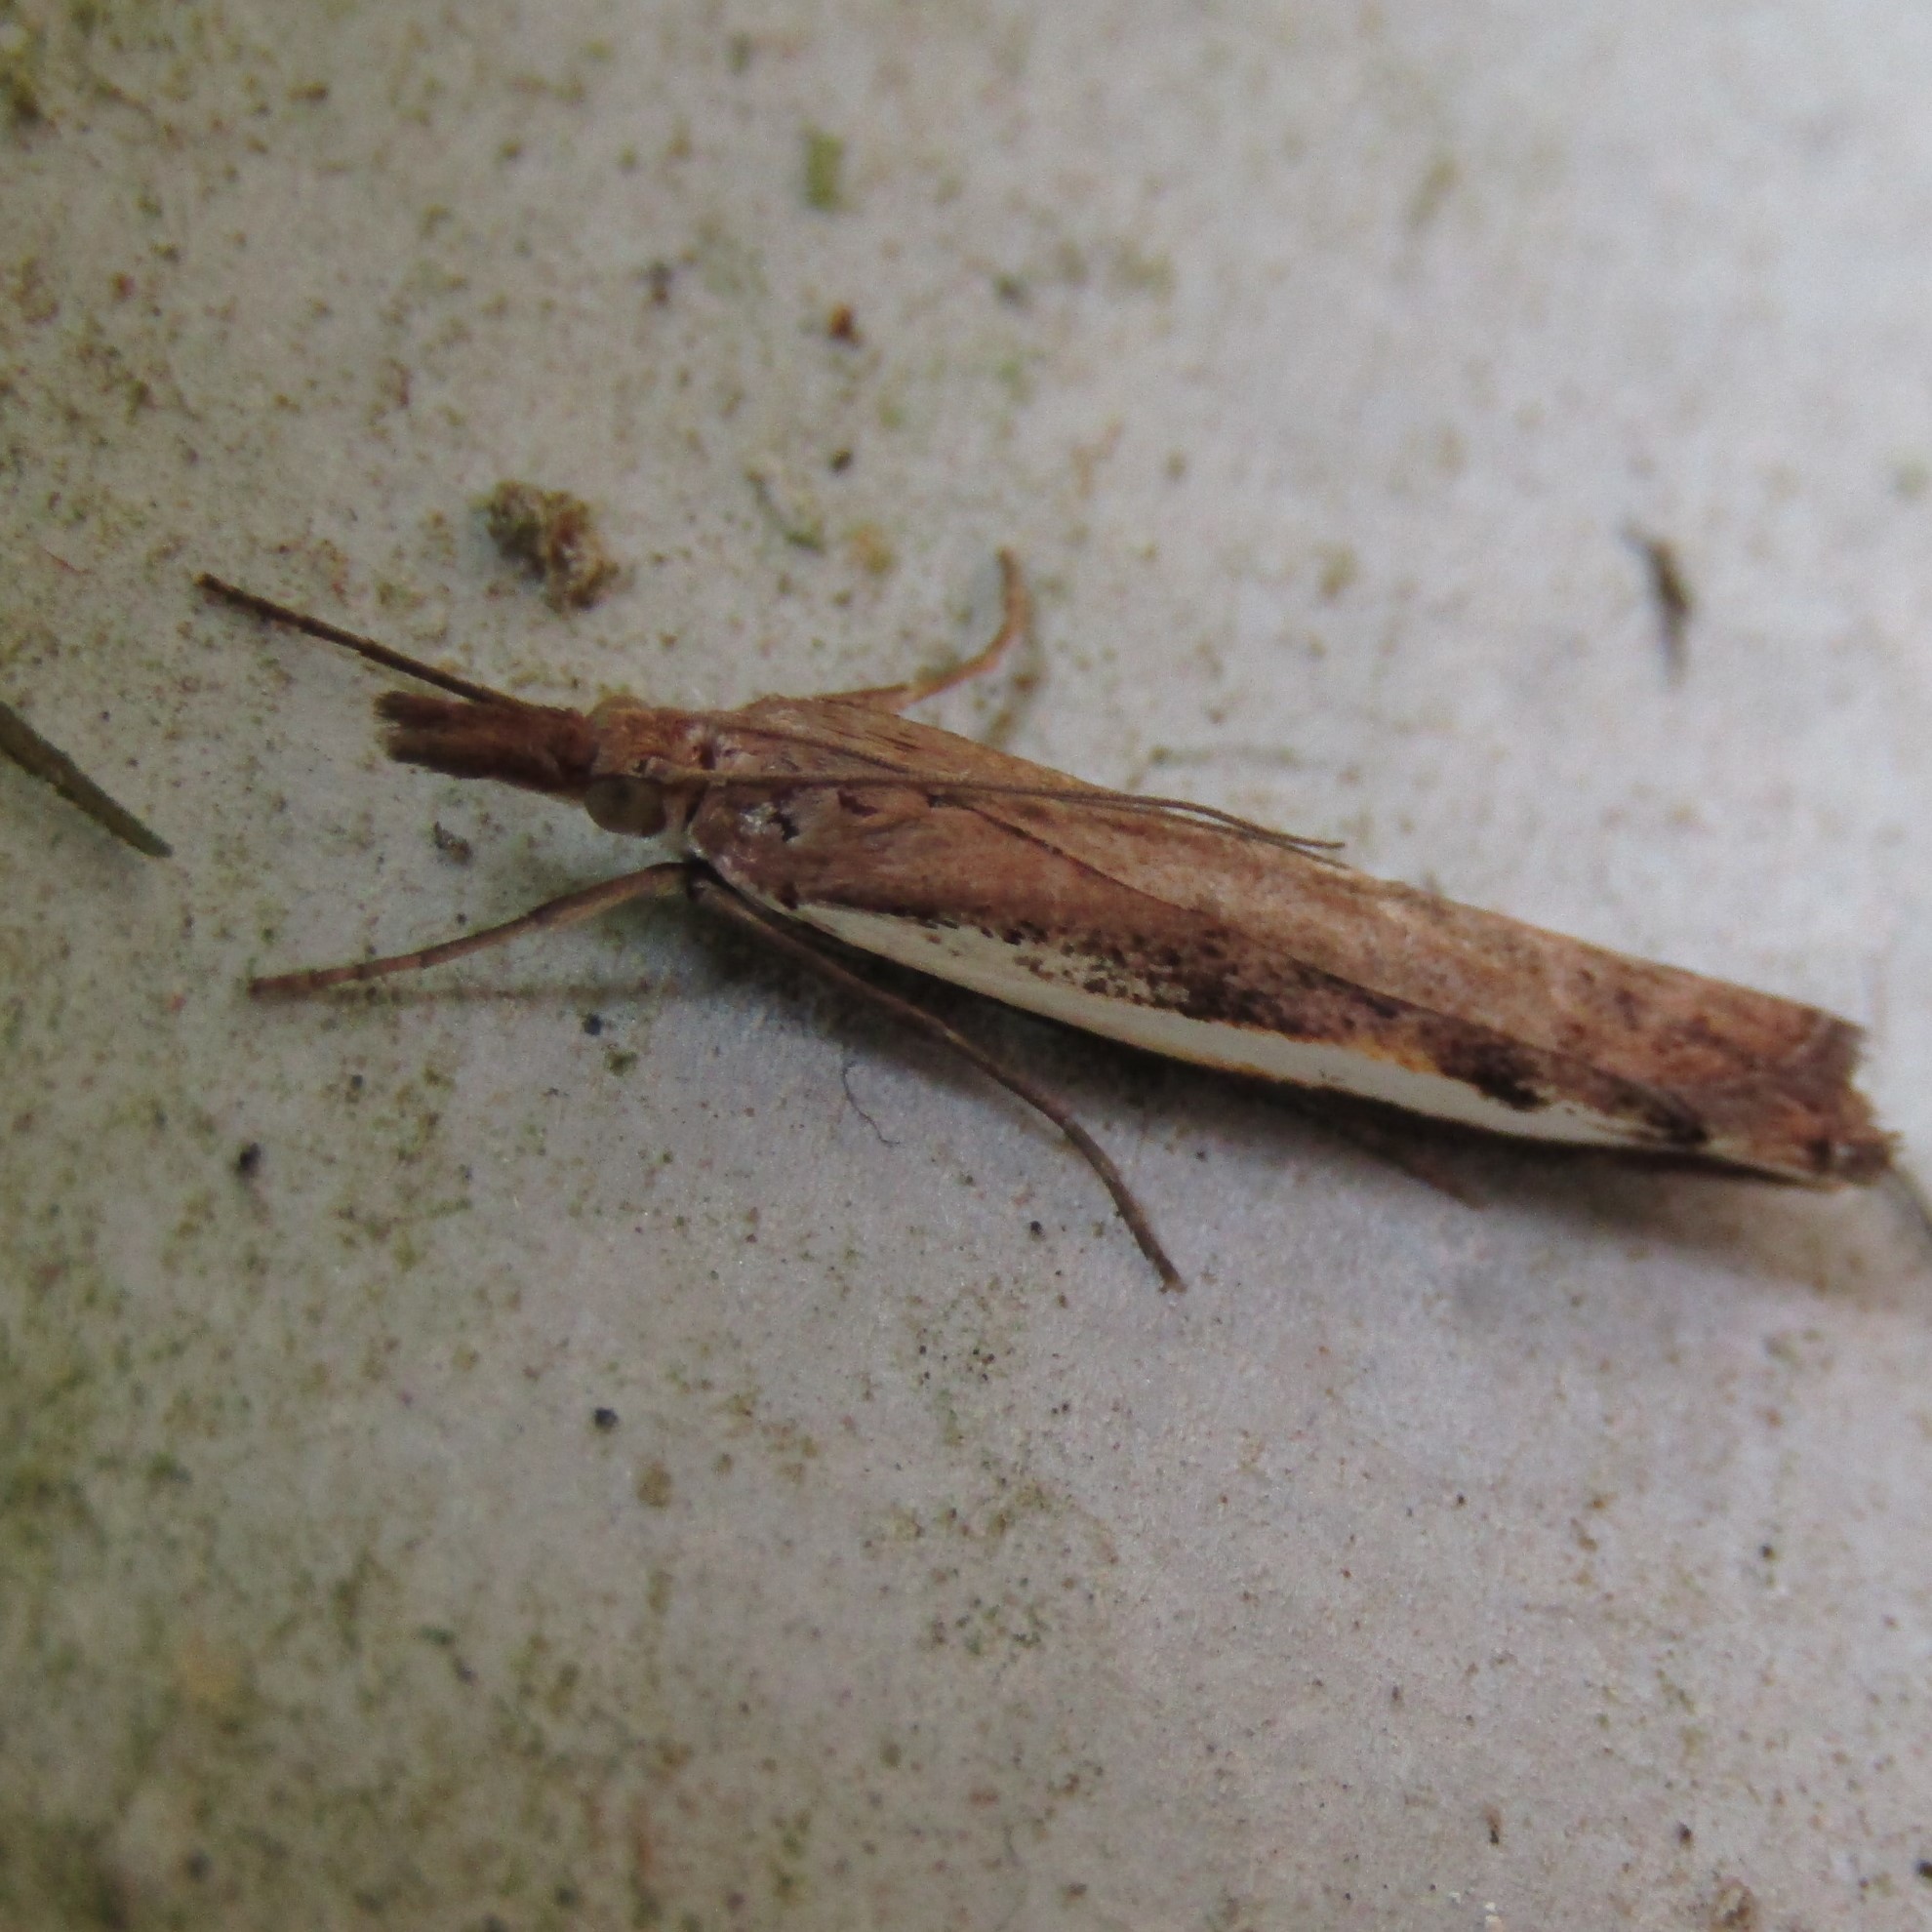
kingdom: Animalia
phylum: Arthropoda
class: Insecta
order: Lepidoptera
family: Crambidae
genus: Orocrambus
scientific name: Orocrambus flexuosellus
